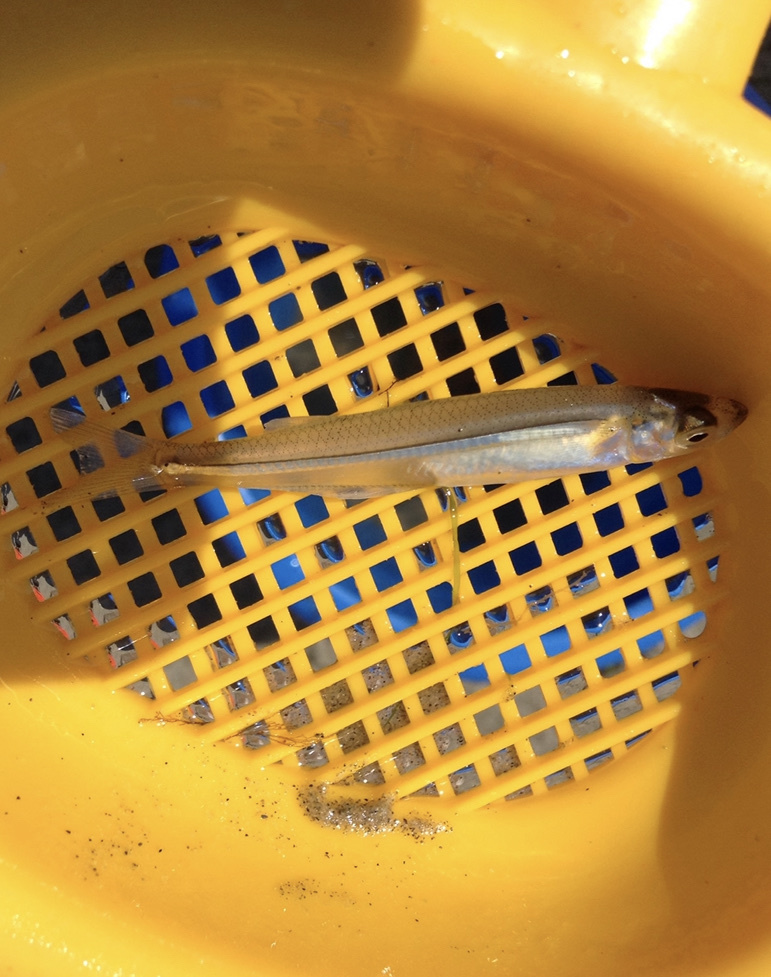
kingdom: Animalia
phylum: Chordata
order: Atheriniformes
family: Atherinopsidae
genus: Menidia
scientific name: Menidia menidia
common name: Atlantic silverside
